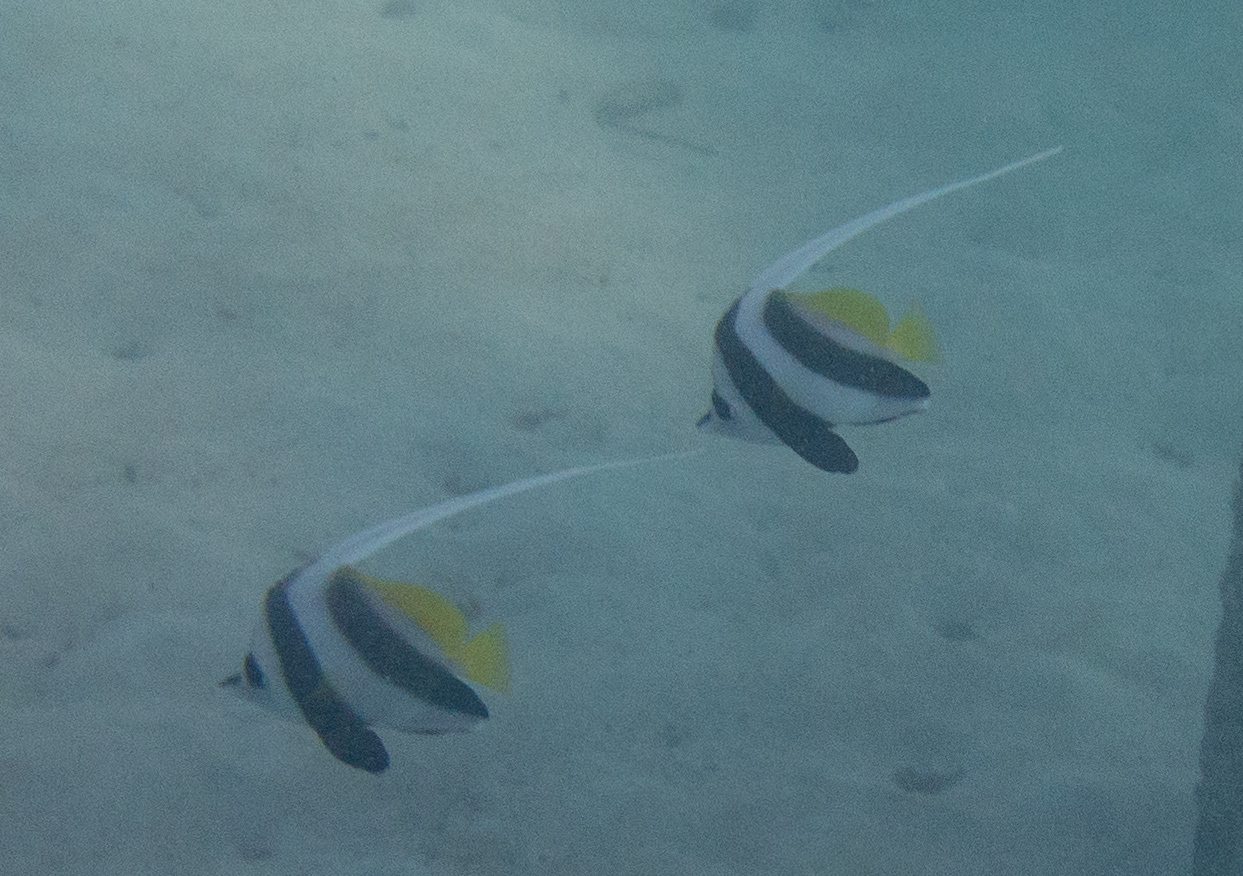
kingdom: Animalia
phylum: Chordata
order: Perciformes
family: Chaetodontidae
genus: Heniochus
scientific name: Heniochus acuminatus
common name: Pennant coralfish
